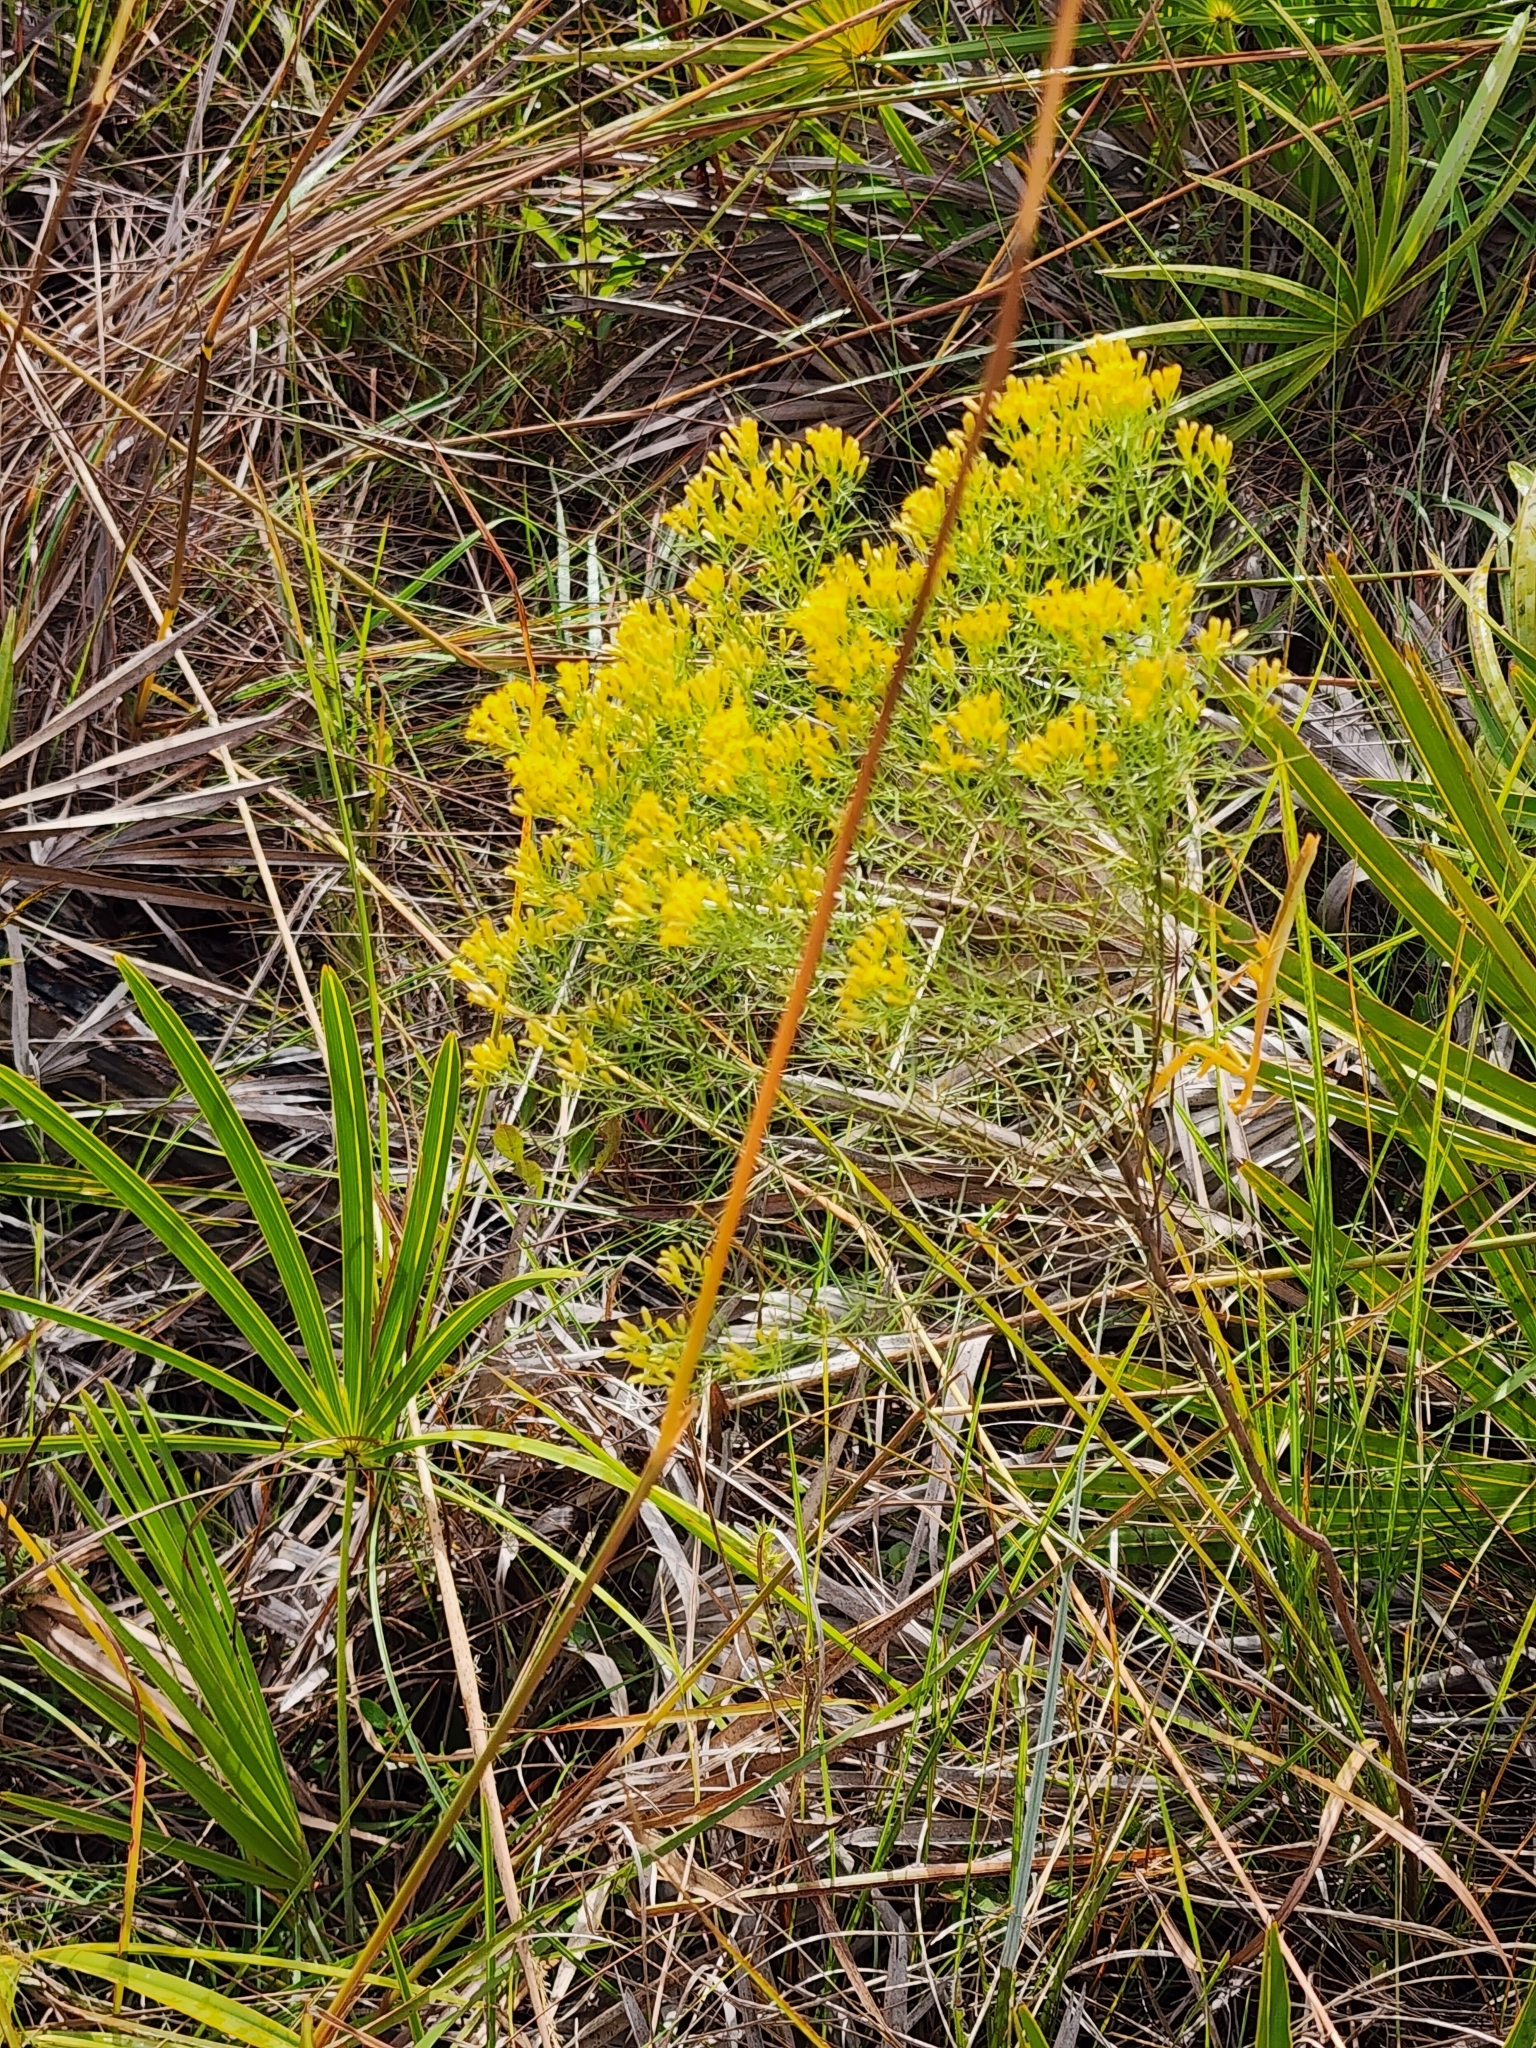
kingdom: Plantae
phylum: Tracheophyta
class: Magnoliopsida
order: Asterales
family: Asteraceae
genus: Euthamia
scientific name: Euthamia caroliniana
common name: Coastal plain goldentop
